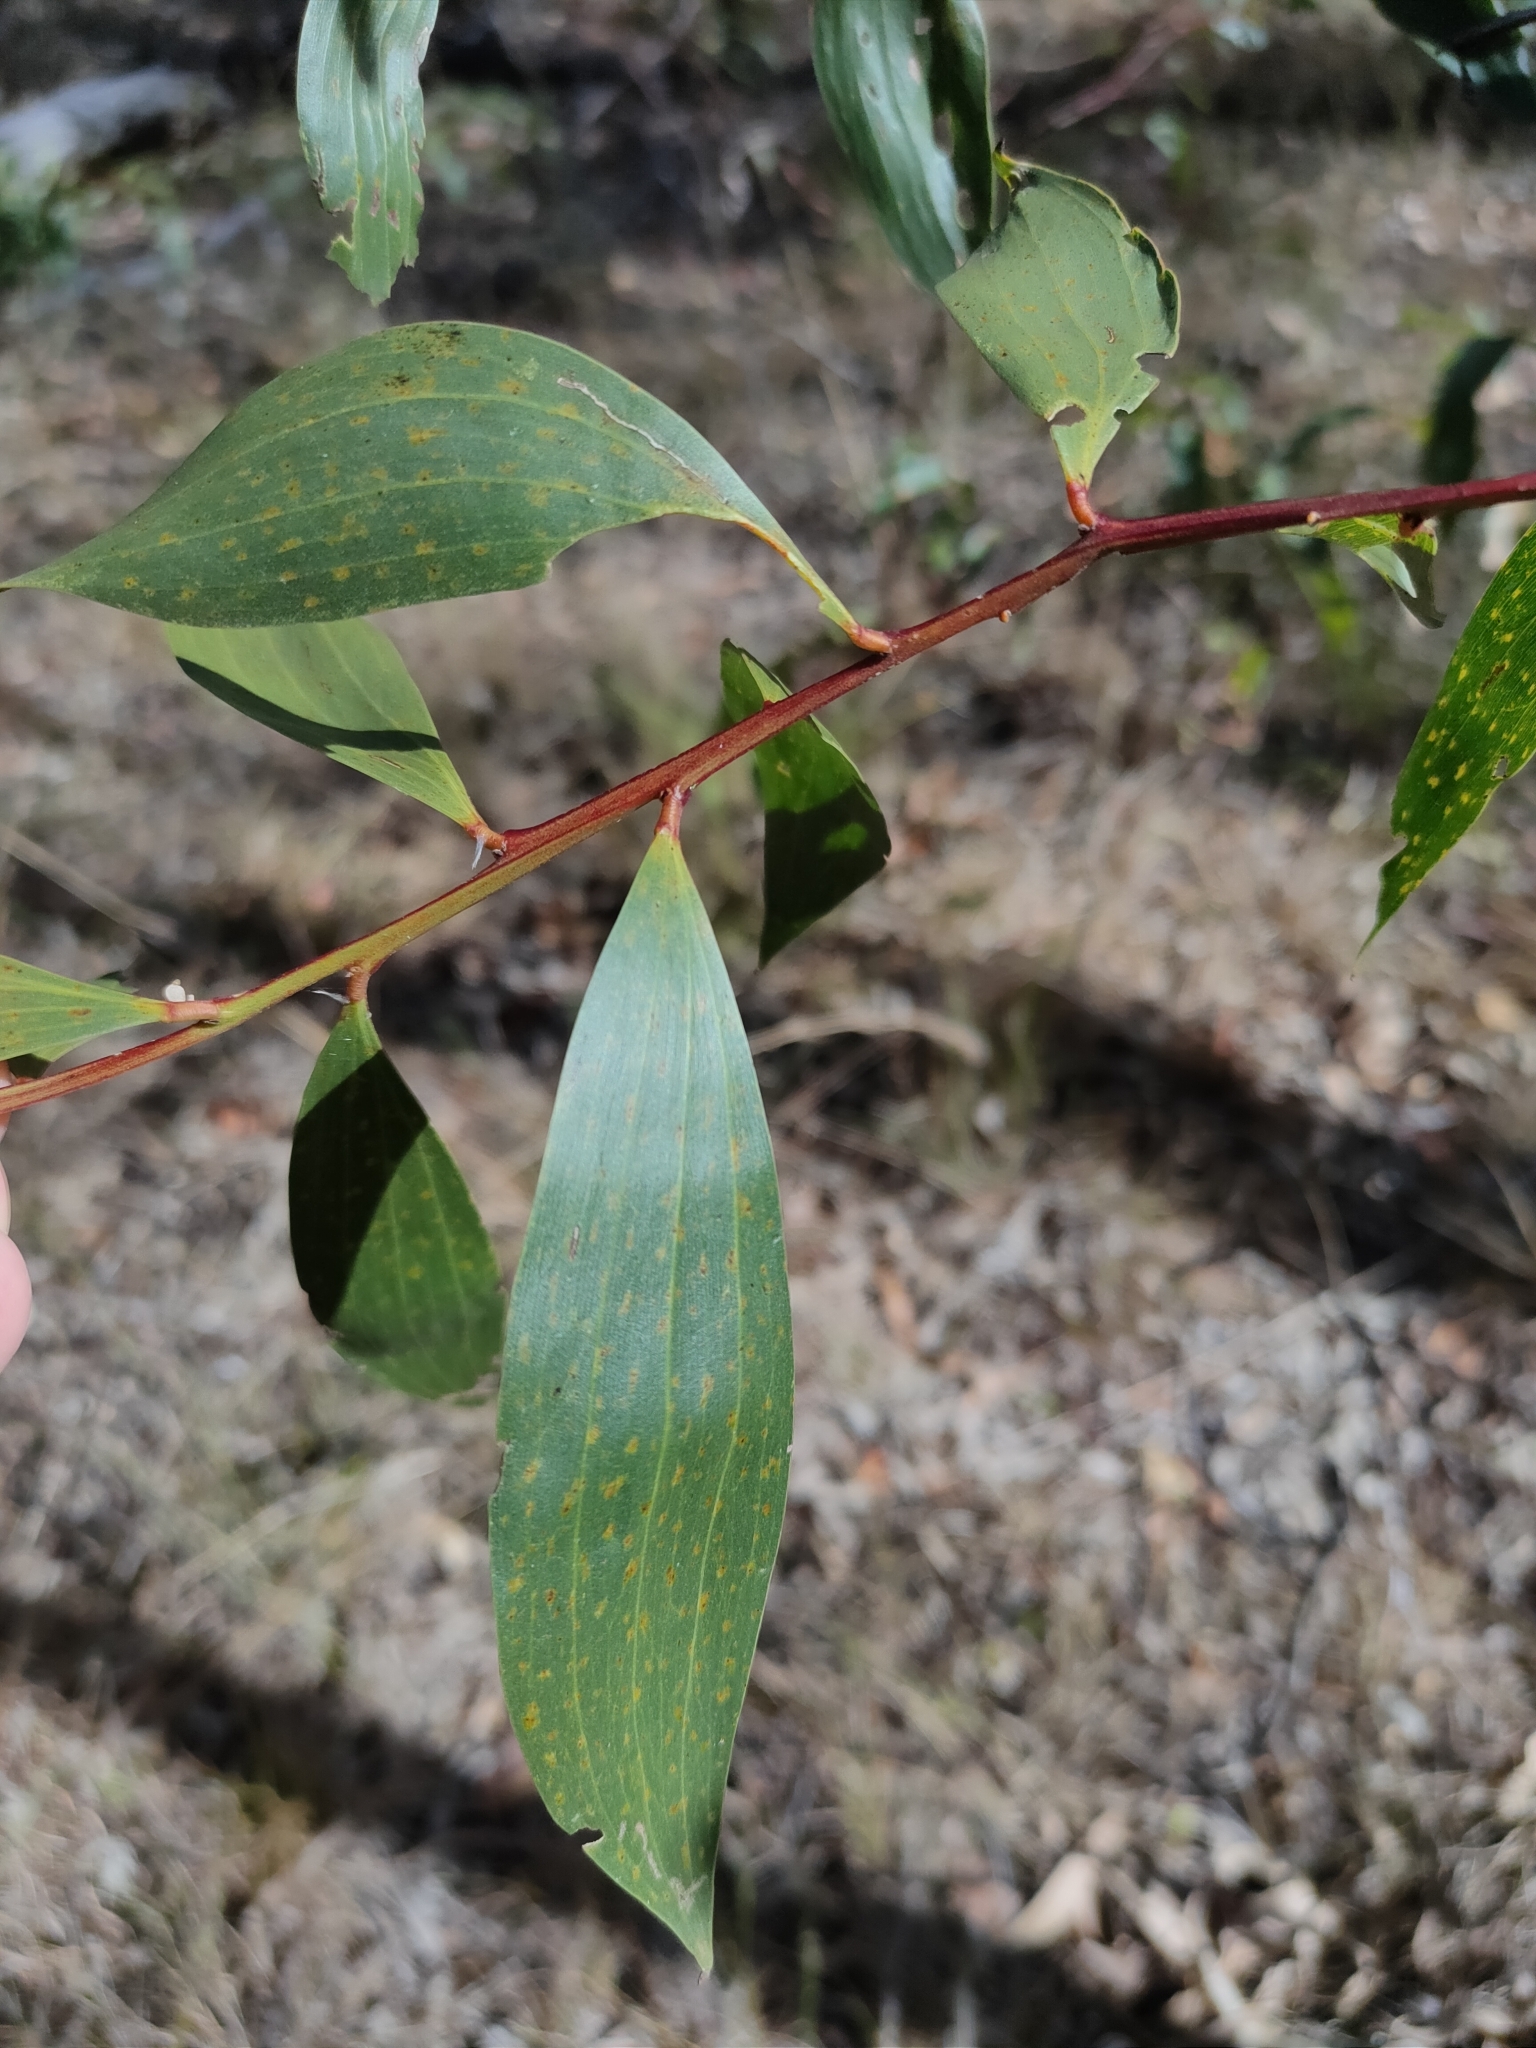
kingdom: Plantae
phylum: Tracheophyta
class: Magnoliopsida
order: Fabales
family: Fabaceae
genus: Acacia
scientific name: Acacia leiocalyx
